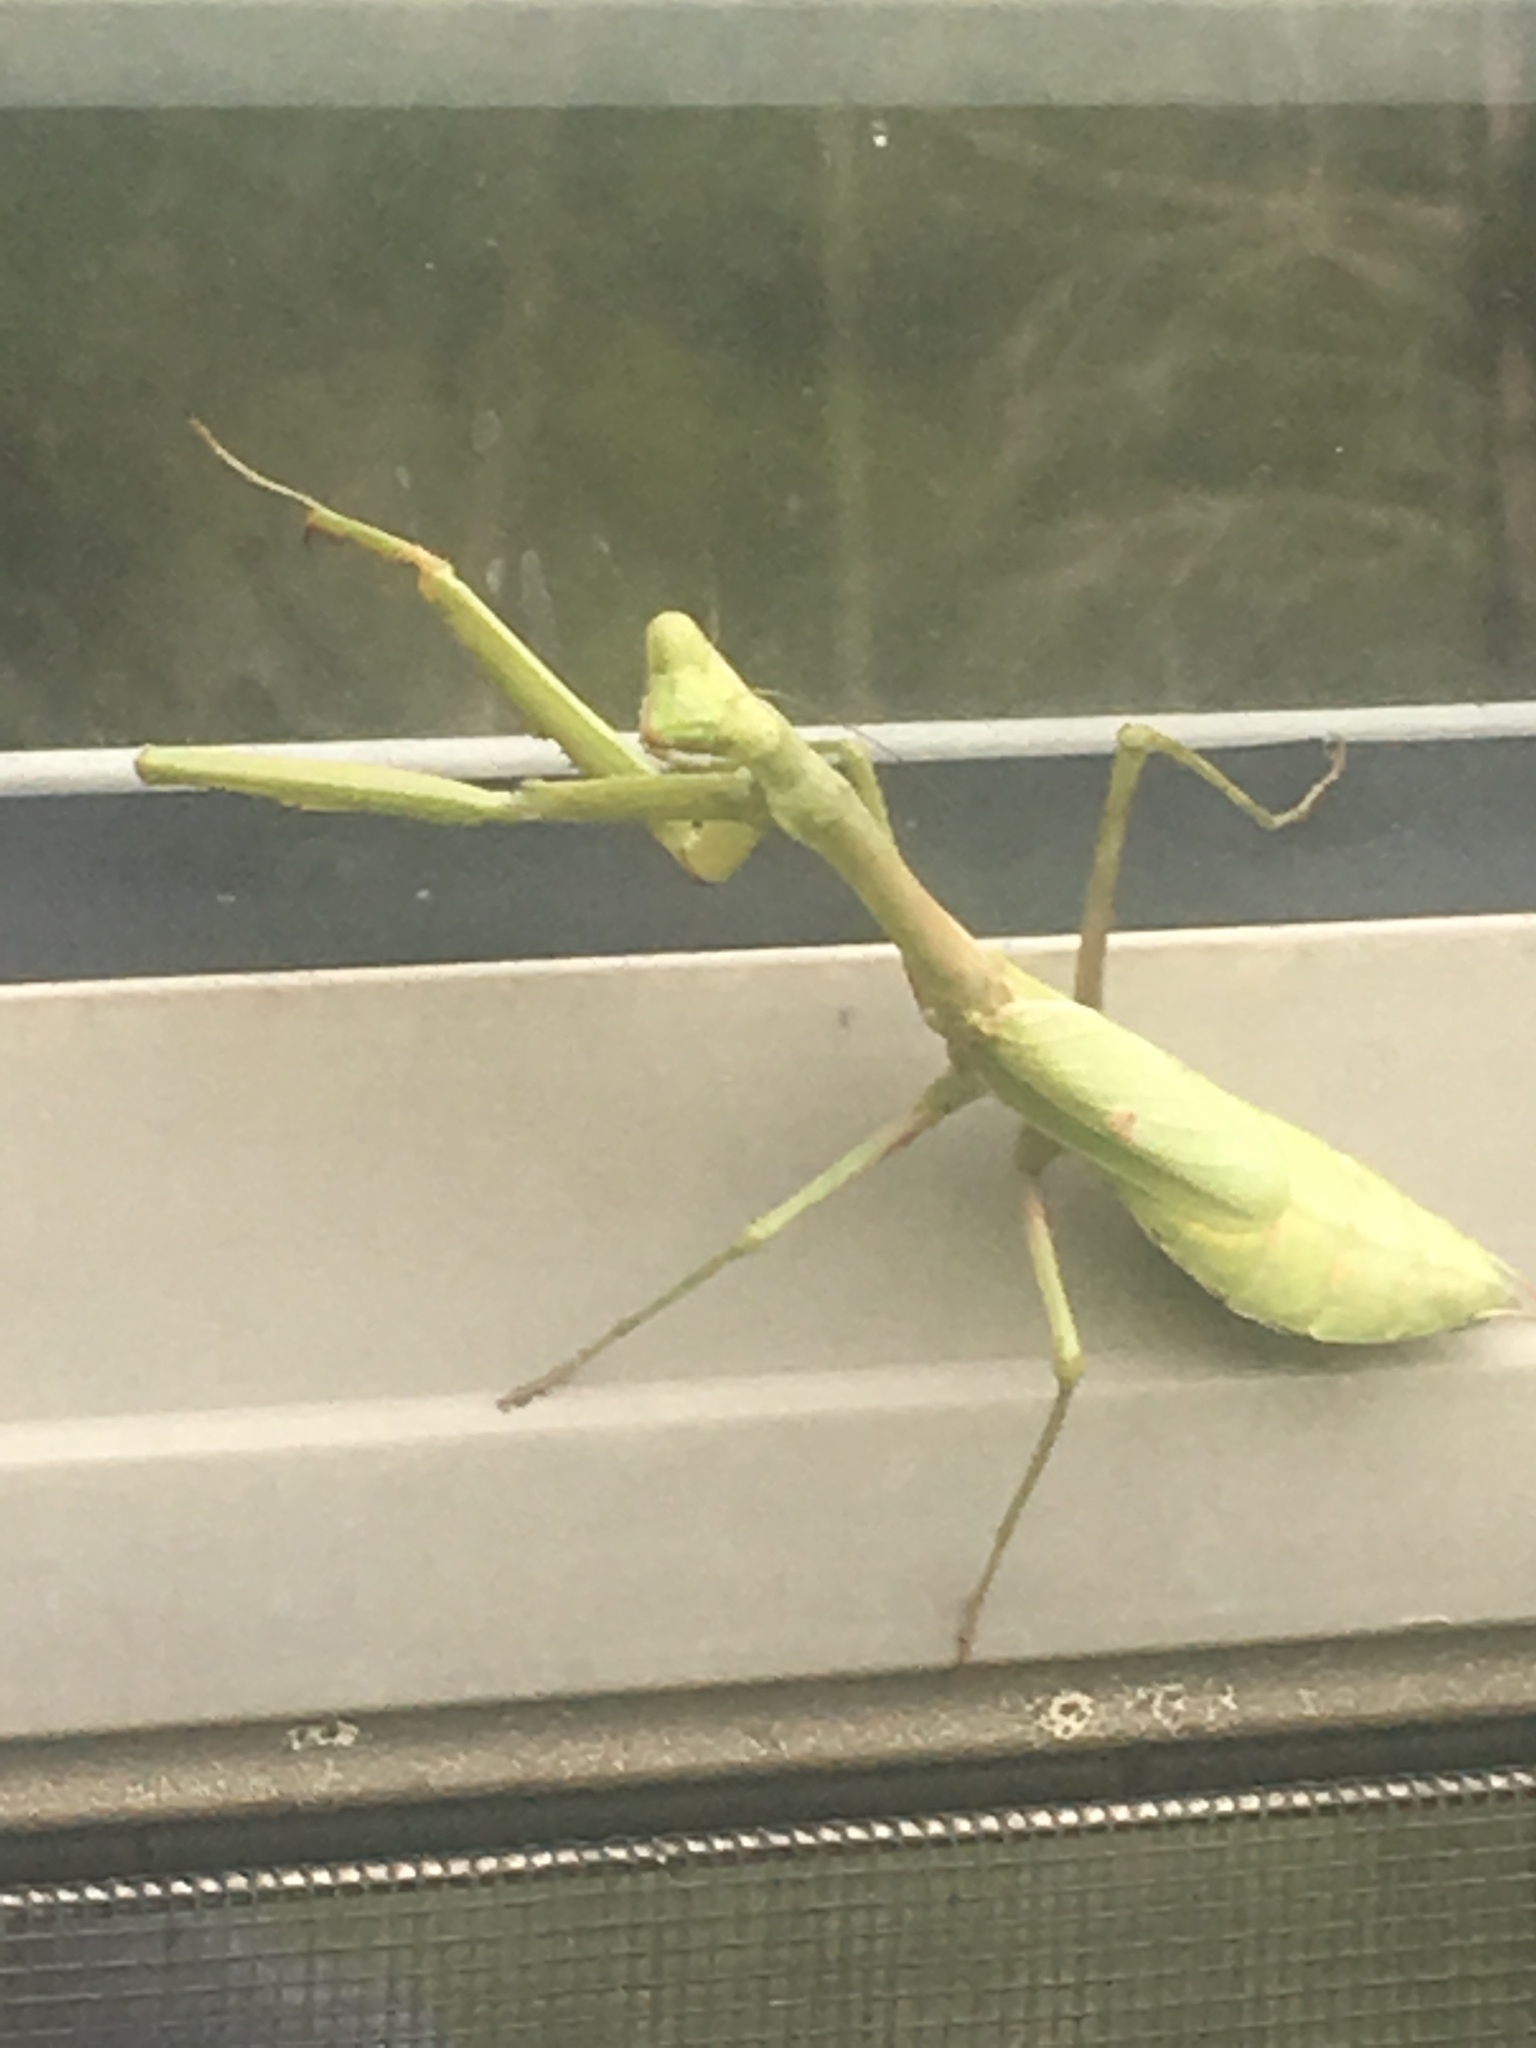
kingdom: Animalia
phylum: Arthropoda
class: Insecta
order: Mantodea
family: Mantidae
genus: Stagmomantis
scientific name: Stagmomantis carolina
